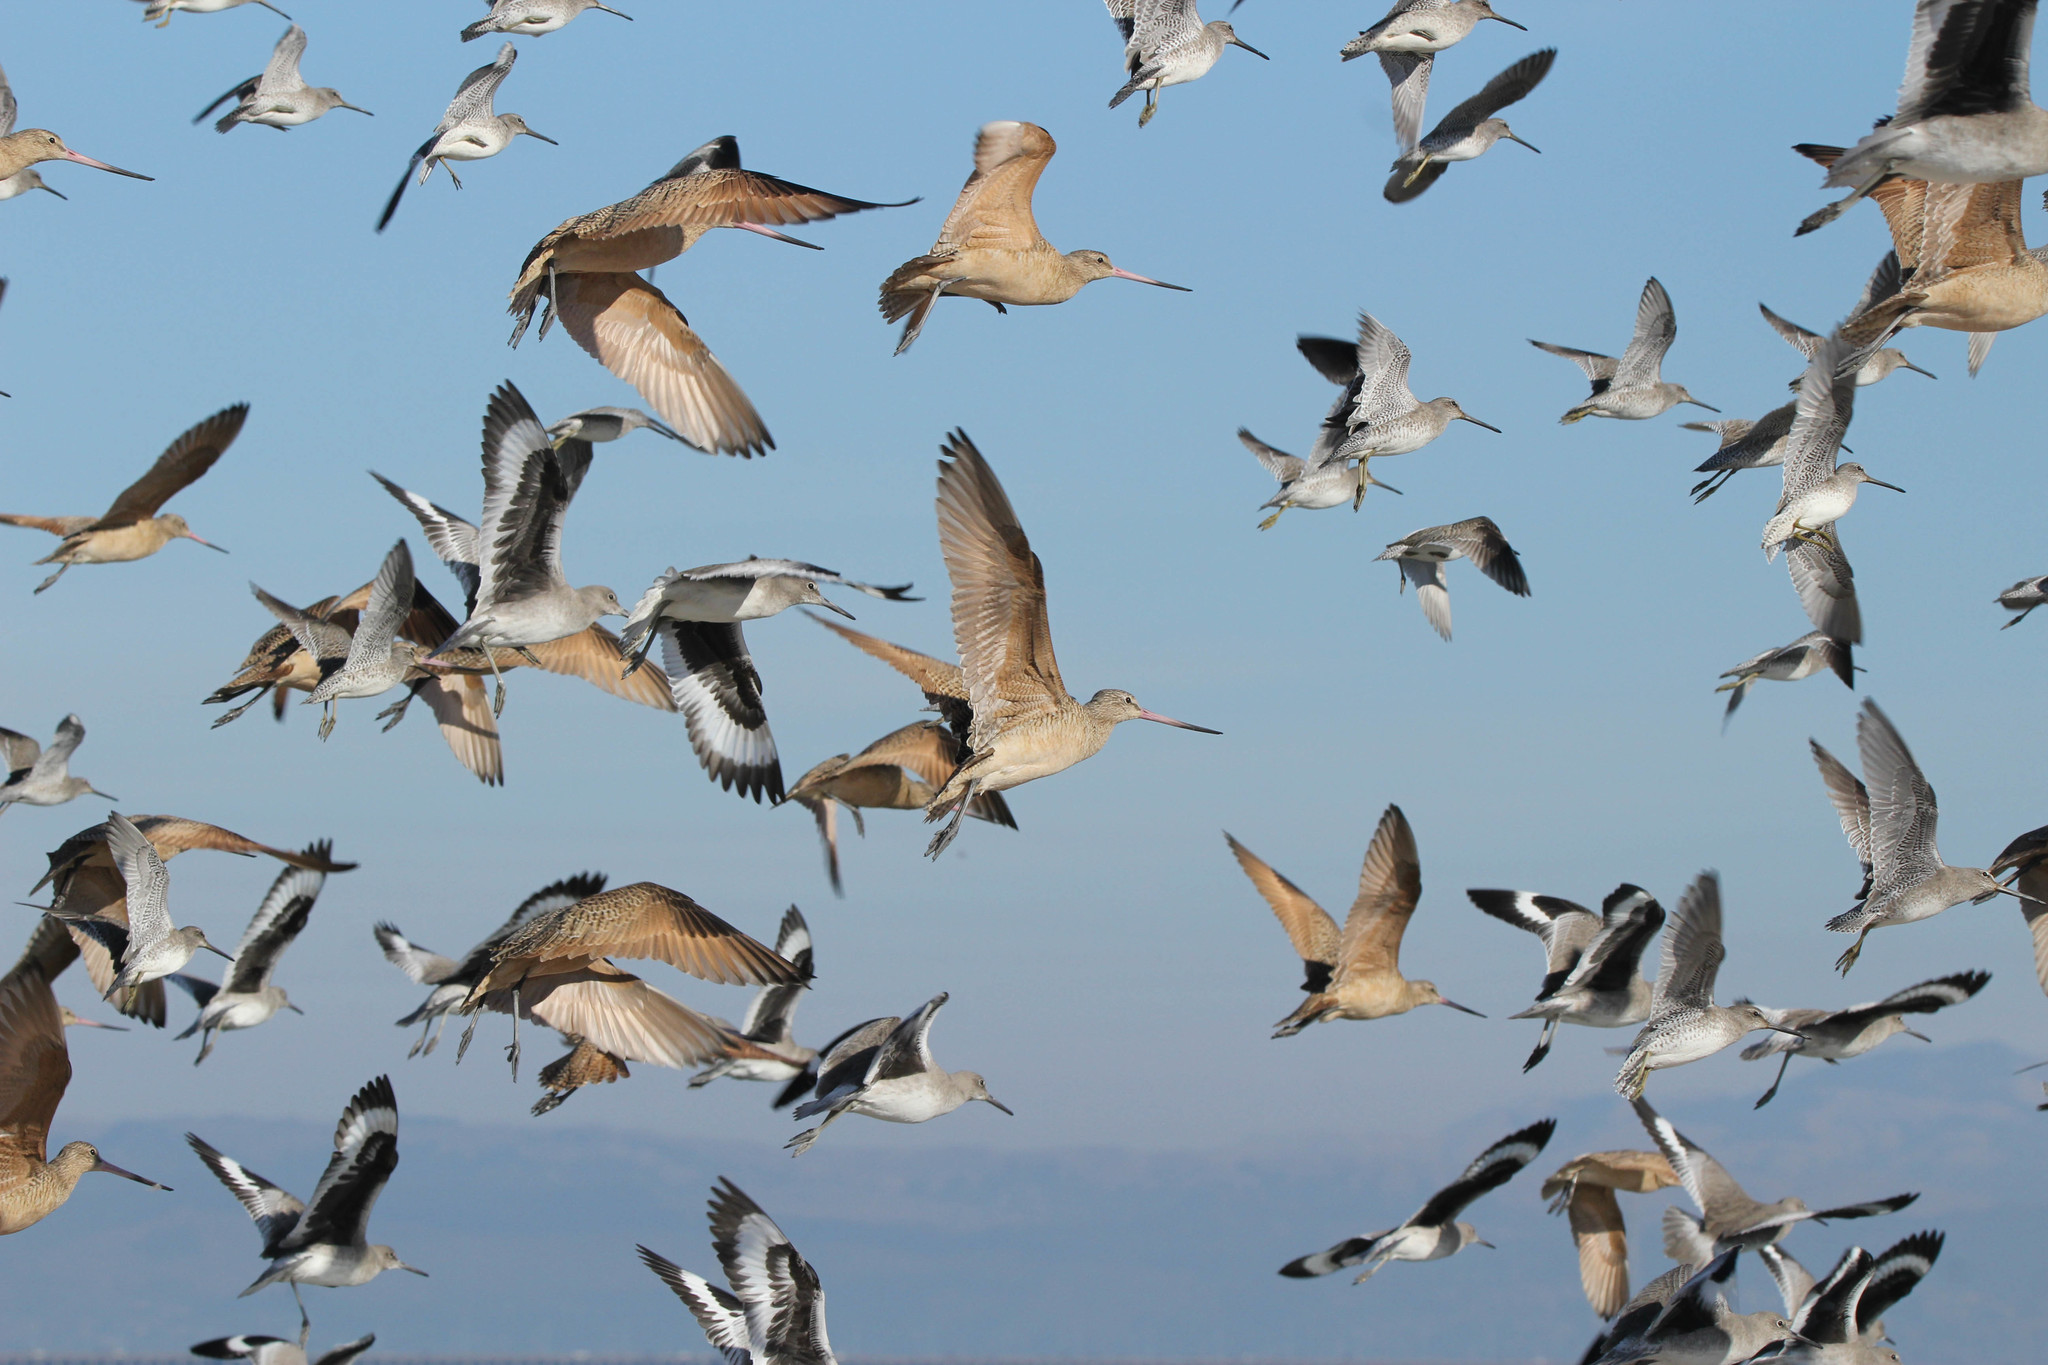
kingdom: Animalia
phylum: Chordata
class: Aves
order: Charadriiformes
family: Scolopacidae
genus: Tringa
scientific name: Tringa semipalmata
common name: Willet
